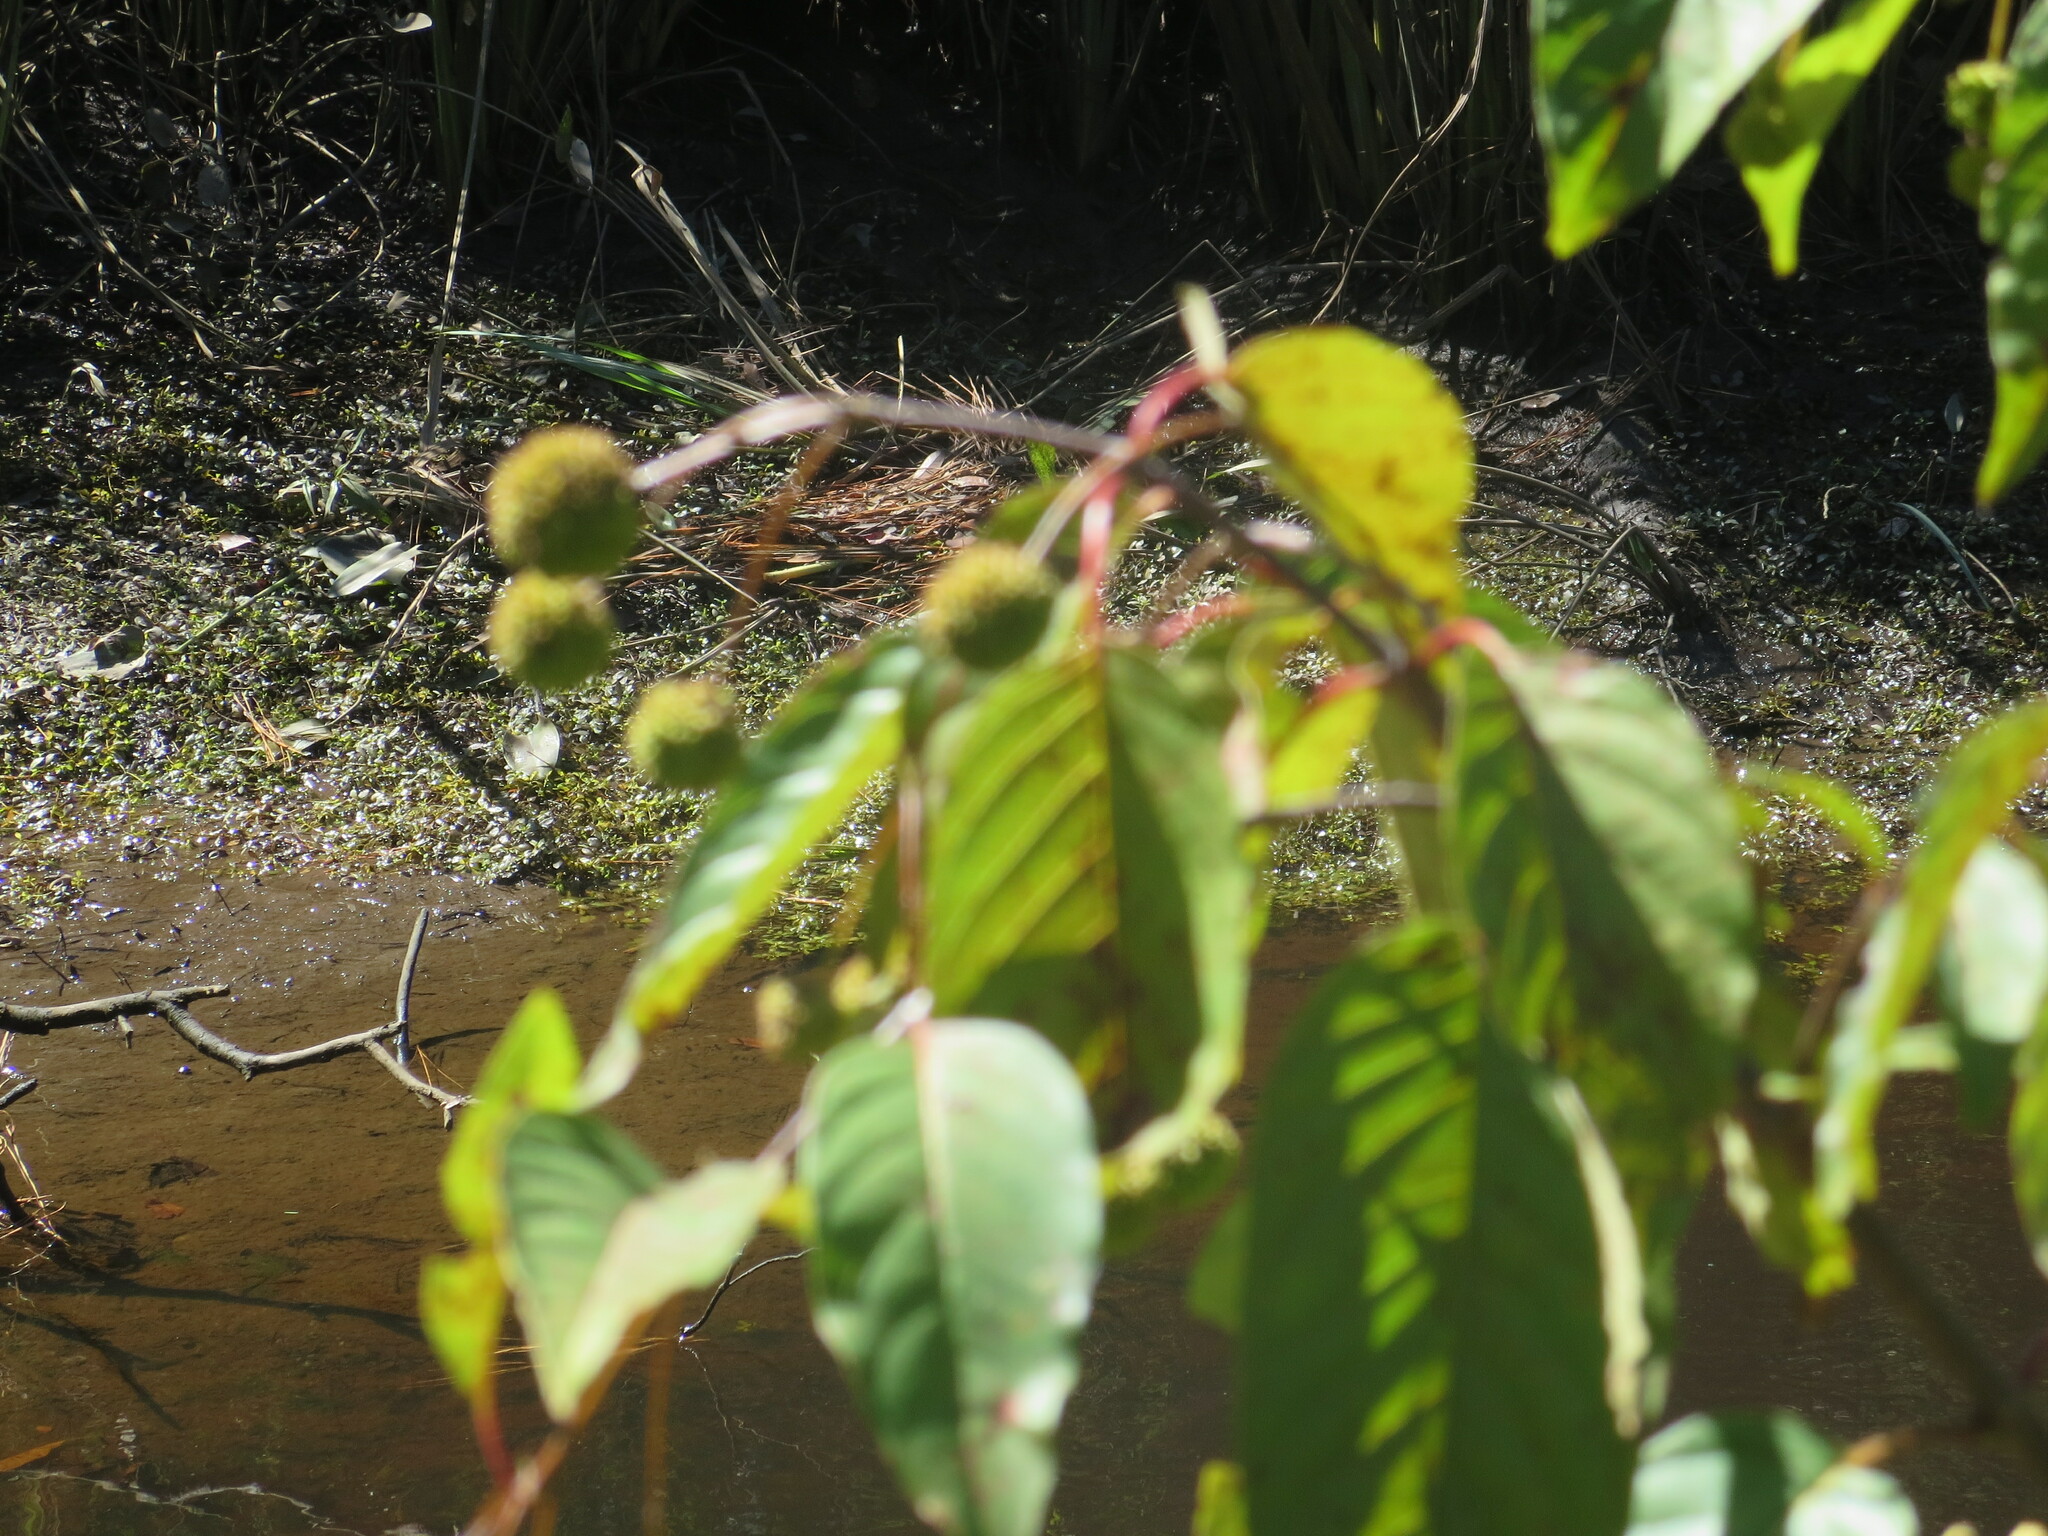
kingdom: Plantae
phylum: Tracheophyta
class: Magnoliopsida
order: Gentianales
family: Rubiaceae
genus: Cephalanthus
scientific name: Cephalanthus occidentalis
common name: Button-willow
